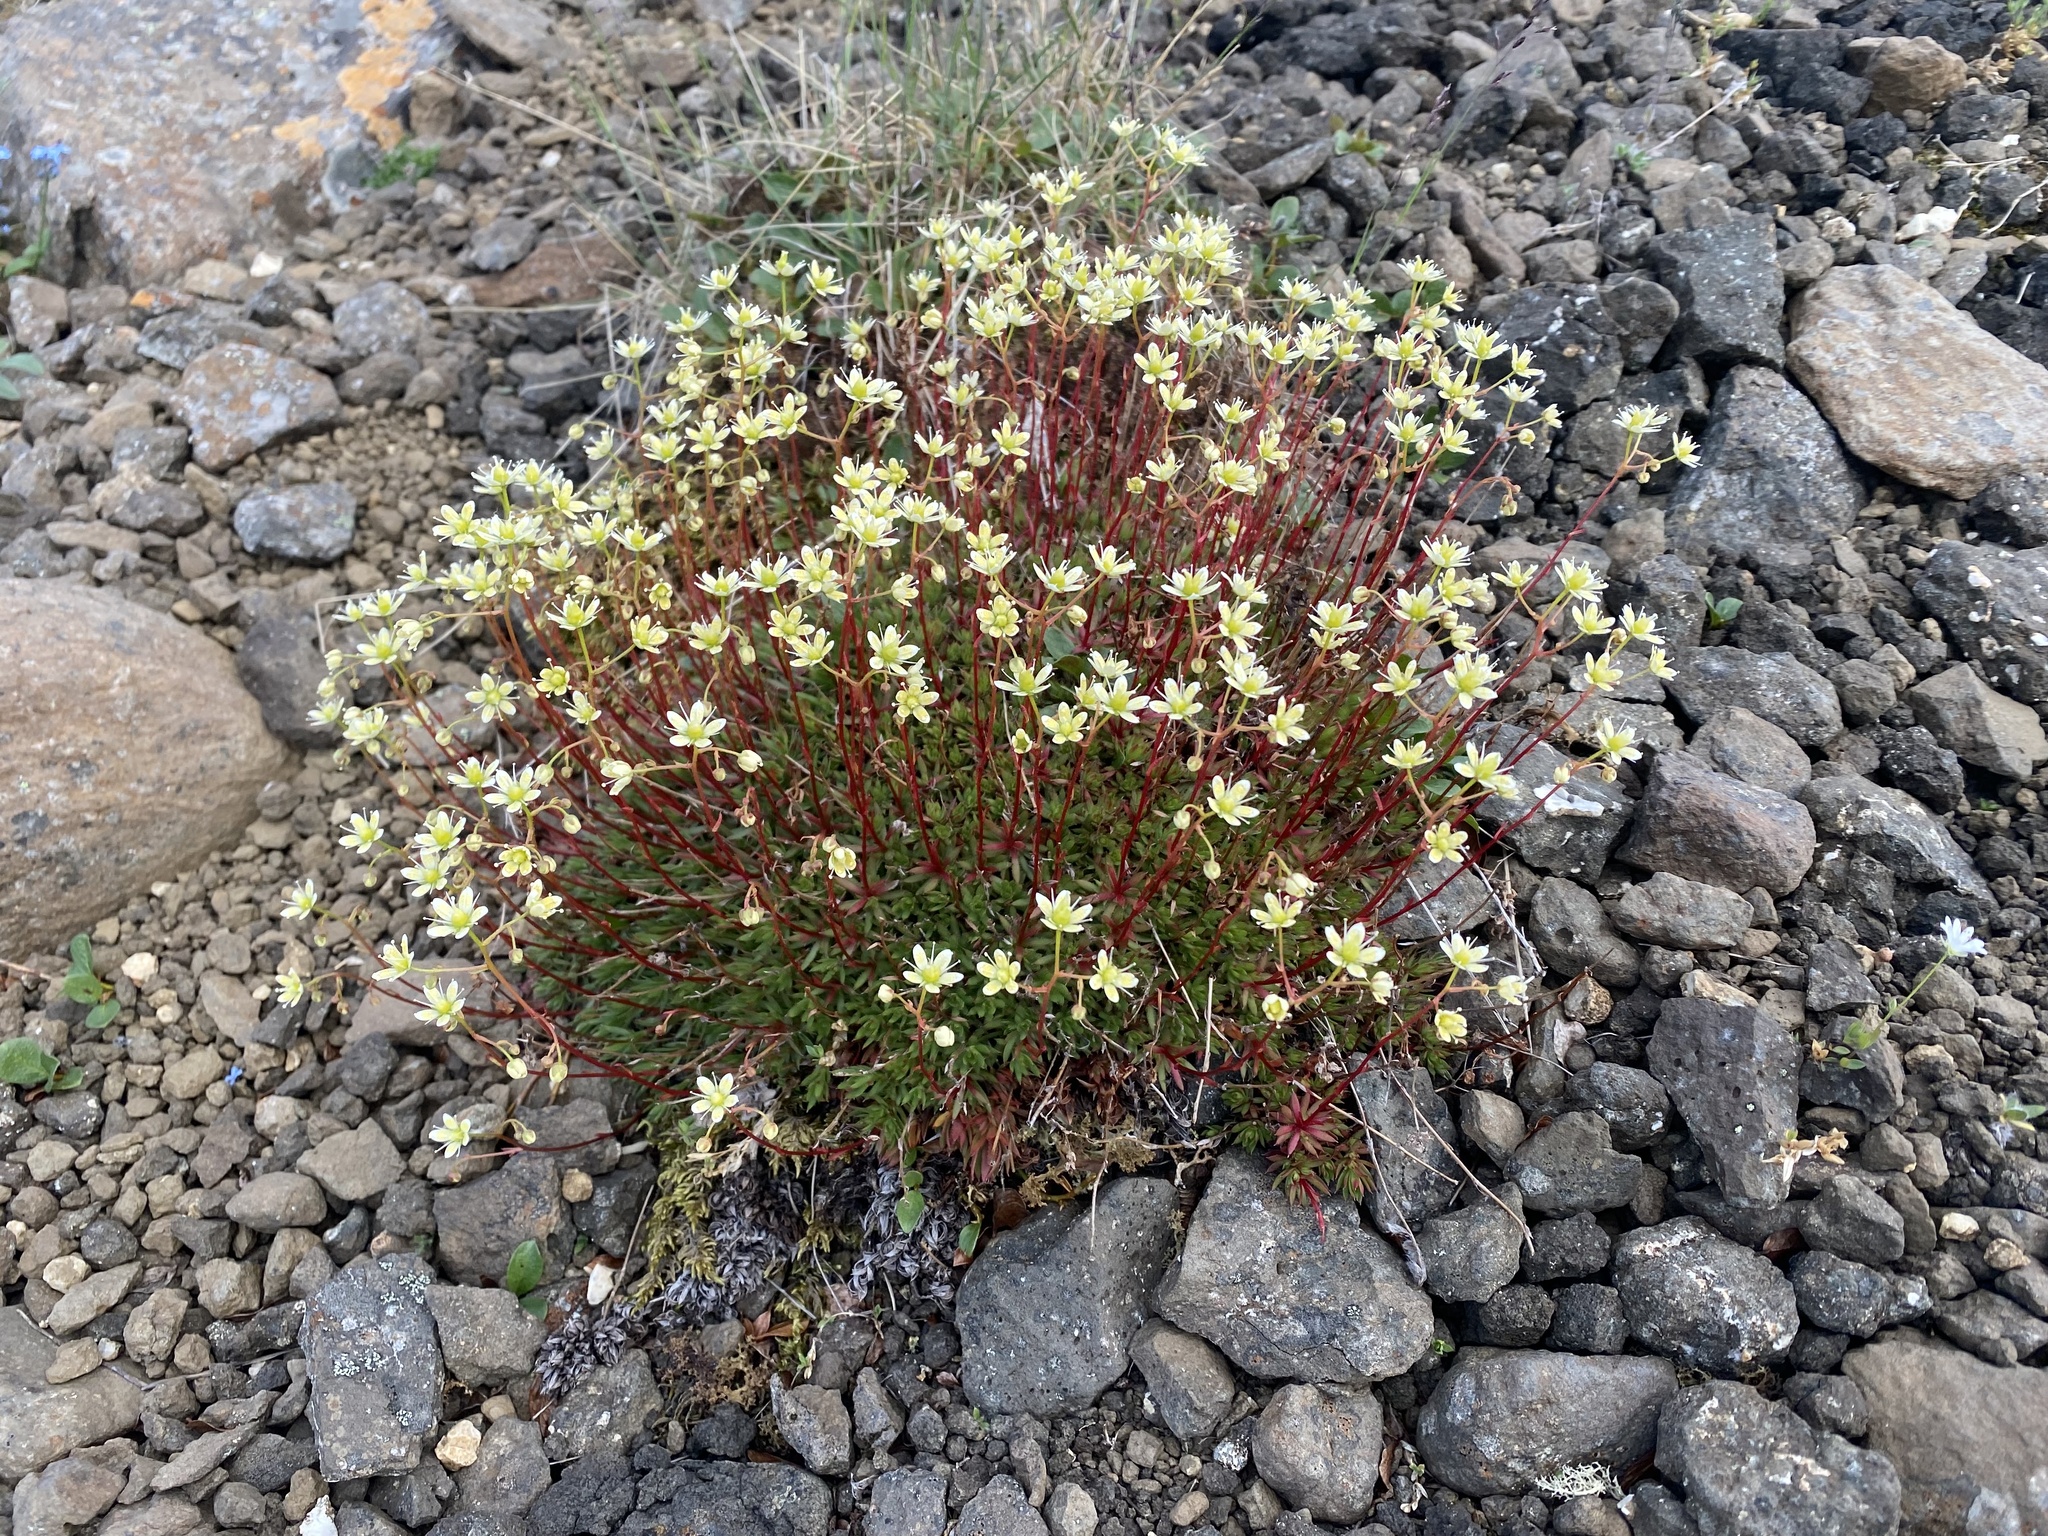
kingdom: Plantae
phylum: Tracheophyta
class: Magnoliopsida
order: Saxifragales
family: Saxifragaceae
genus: Saxifraga
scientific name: Saxifraga
